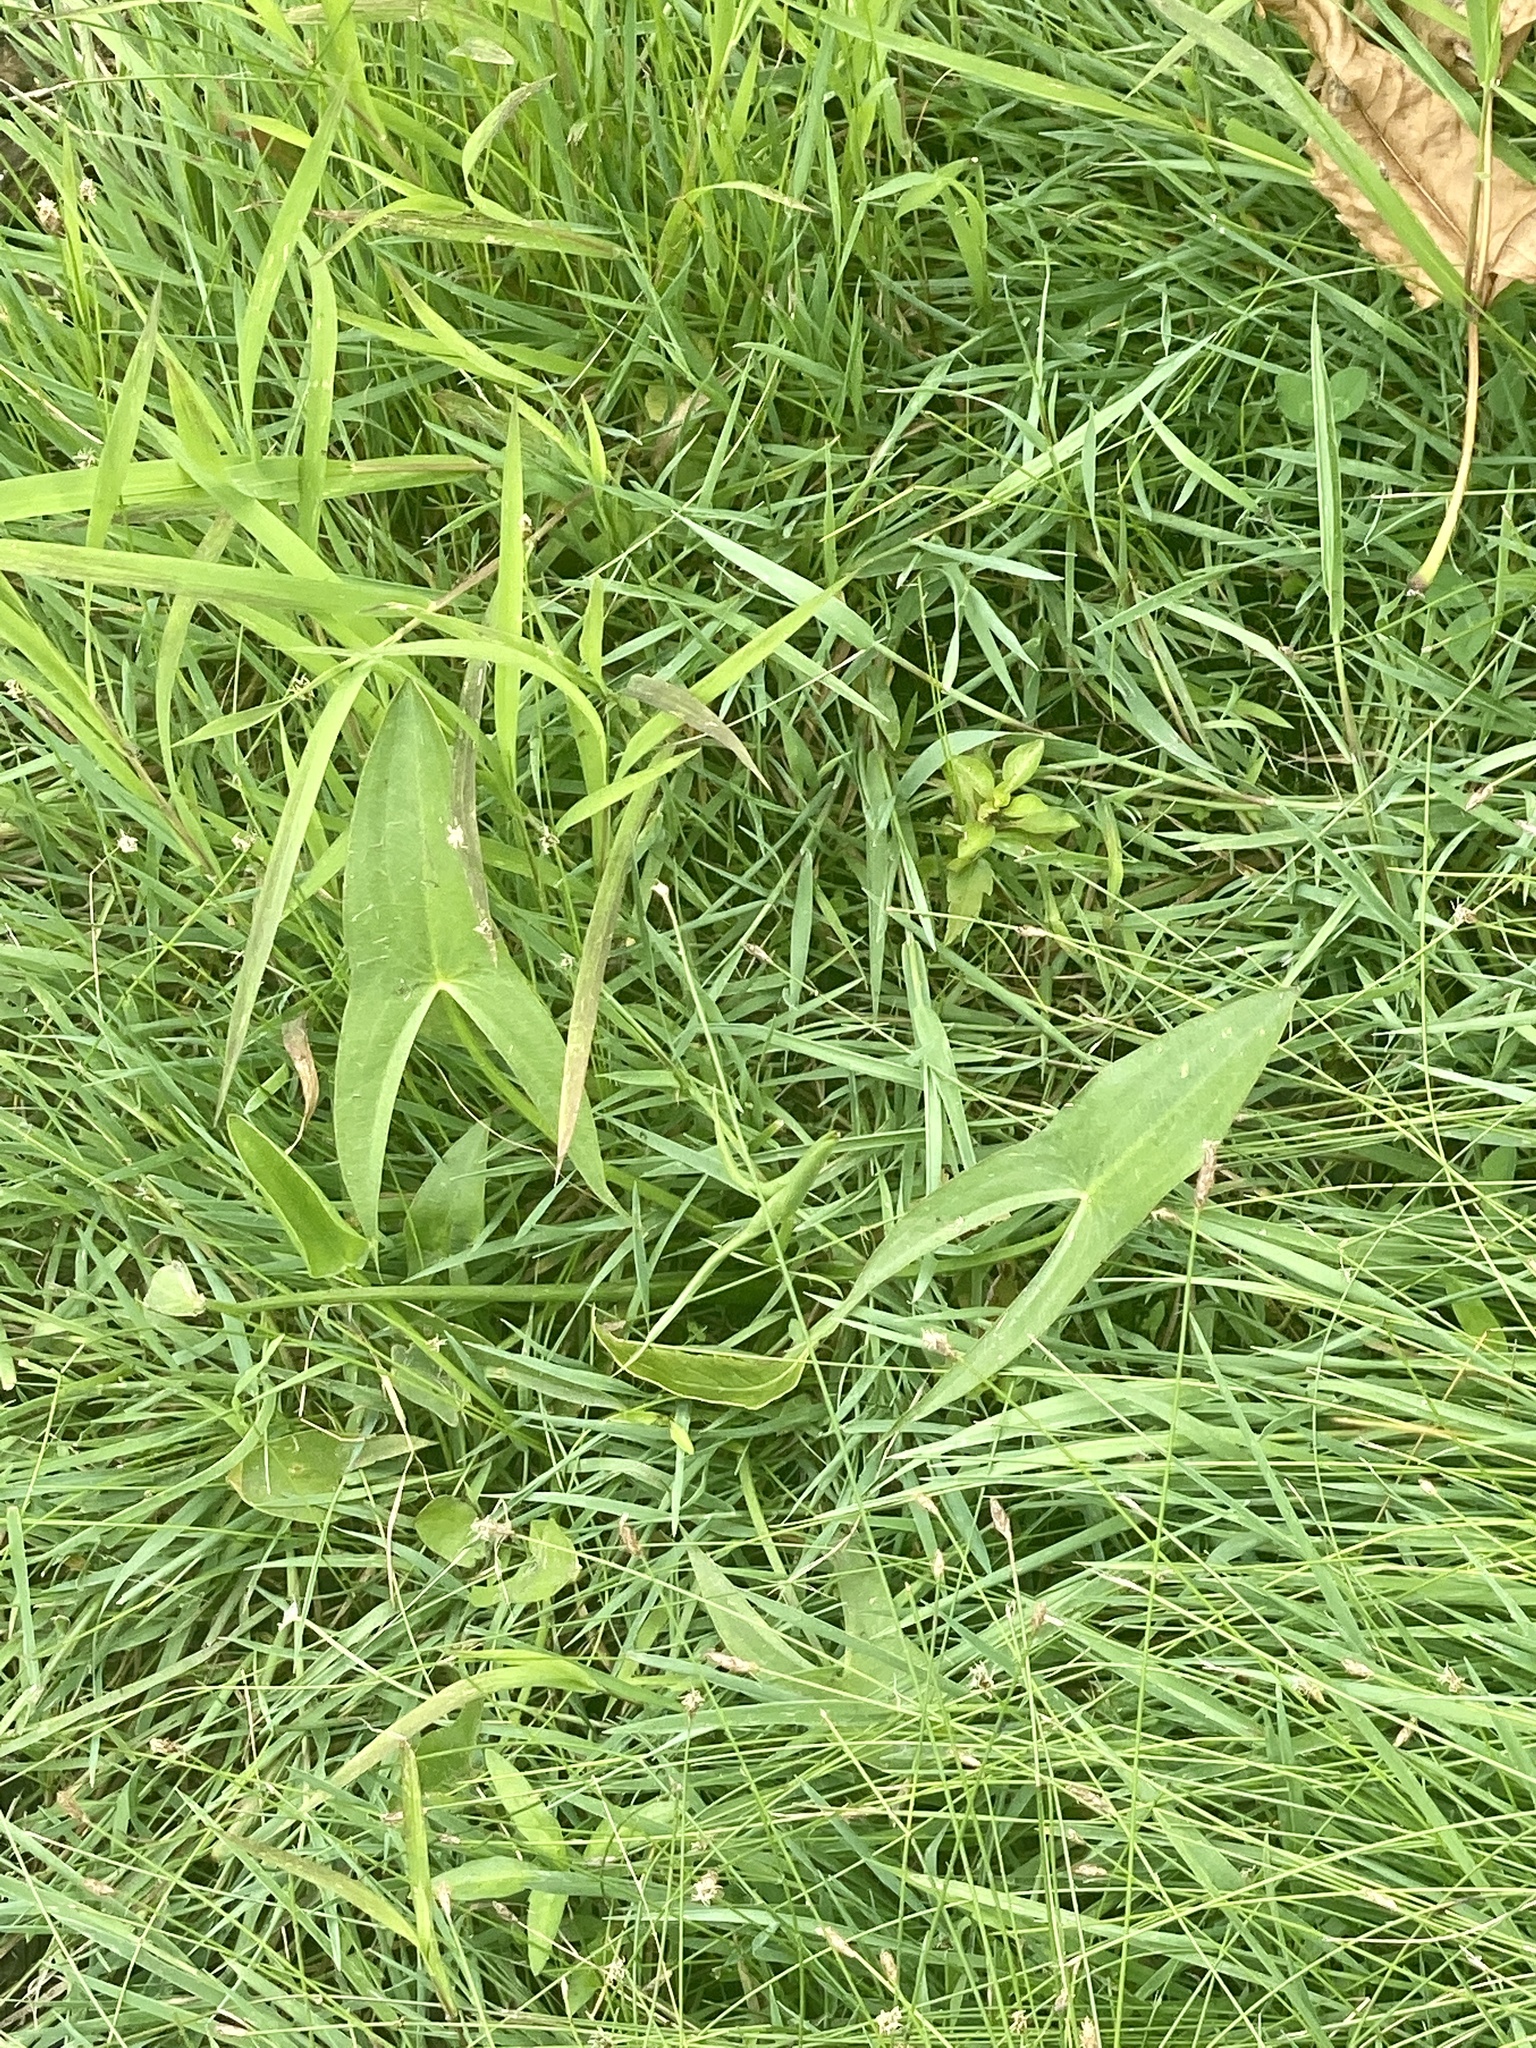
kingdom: Plantae
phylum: Tracheophyta
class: Liliopsida
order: Alismatales
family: Alismataceae
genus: Sagittaria
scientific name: Sagittaria latifolia
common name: Duck-potato
